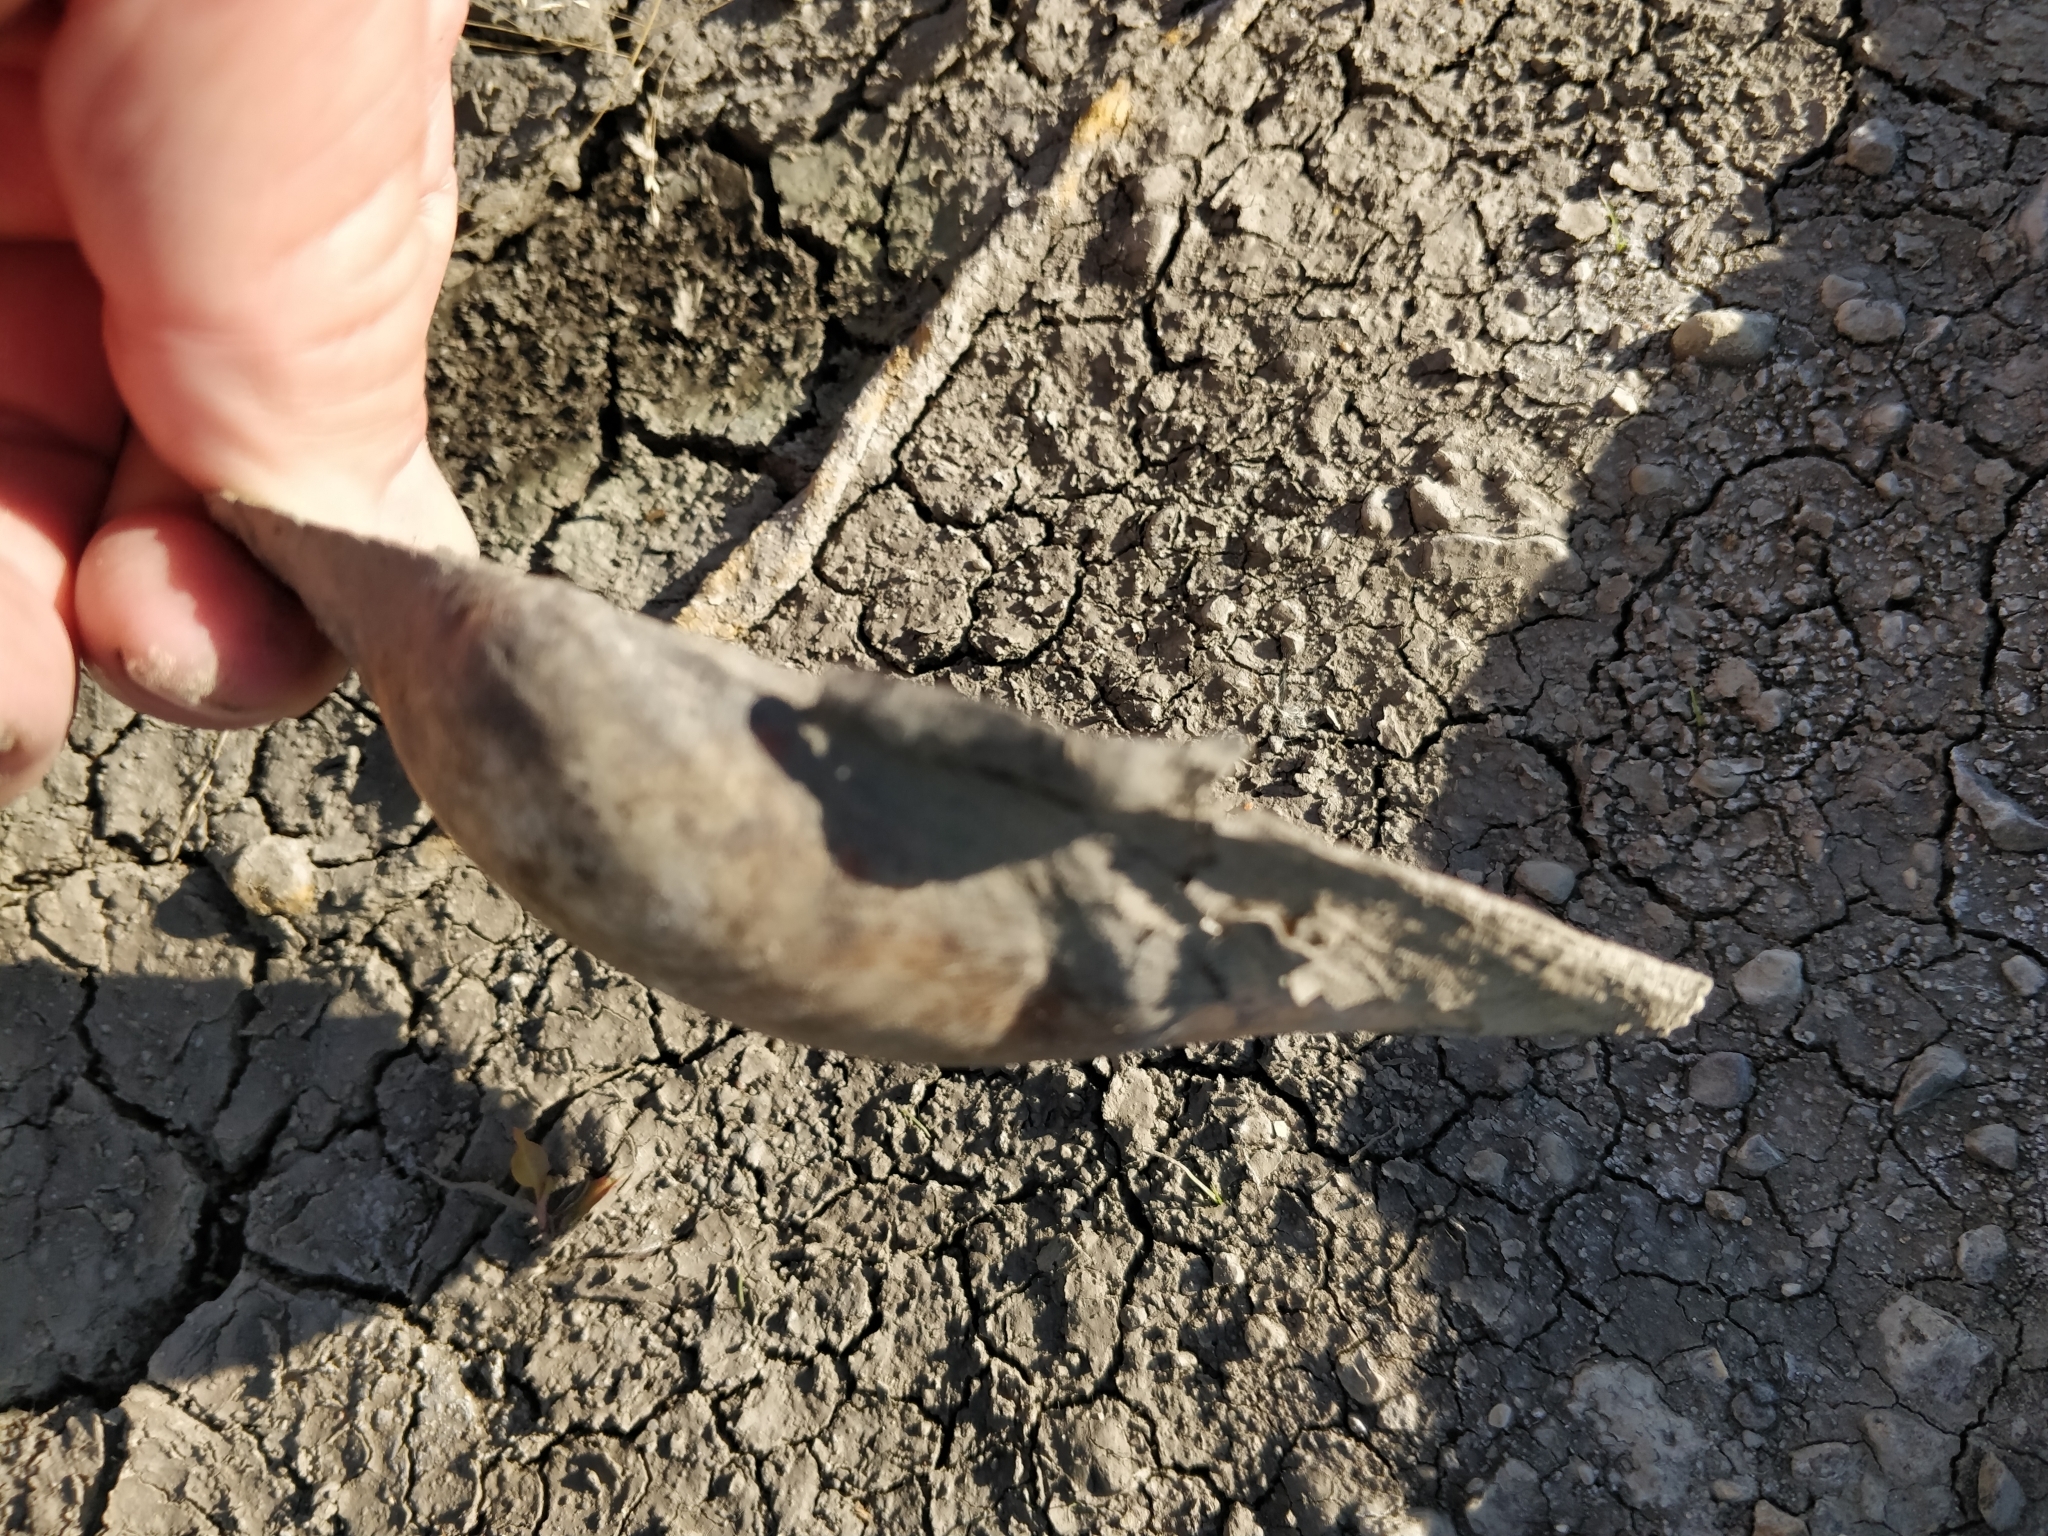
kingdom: Animalia
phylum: Mollusca
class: Bivalvia
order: Unionida
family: Unionidae
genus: Pyganodon
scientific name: Pyganodon grandis
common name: Giant floater
